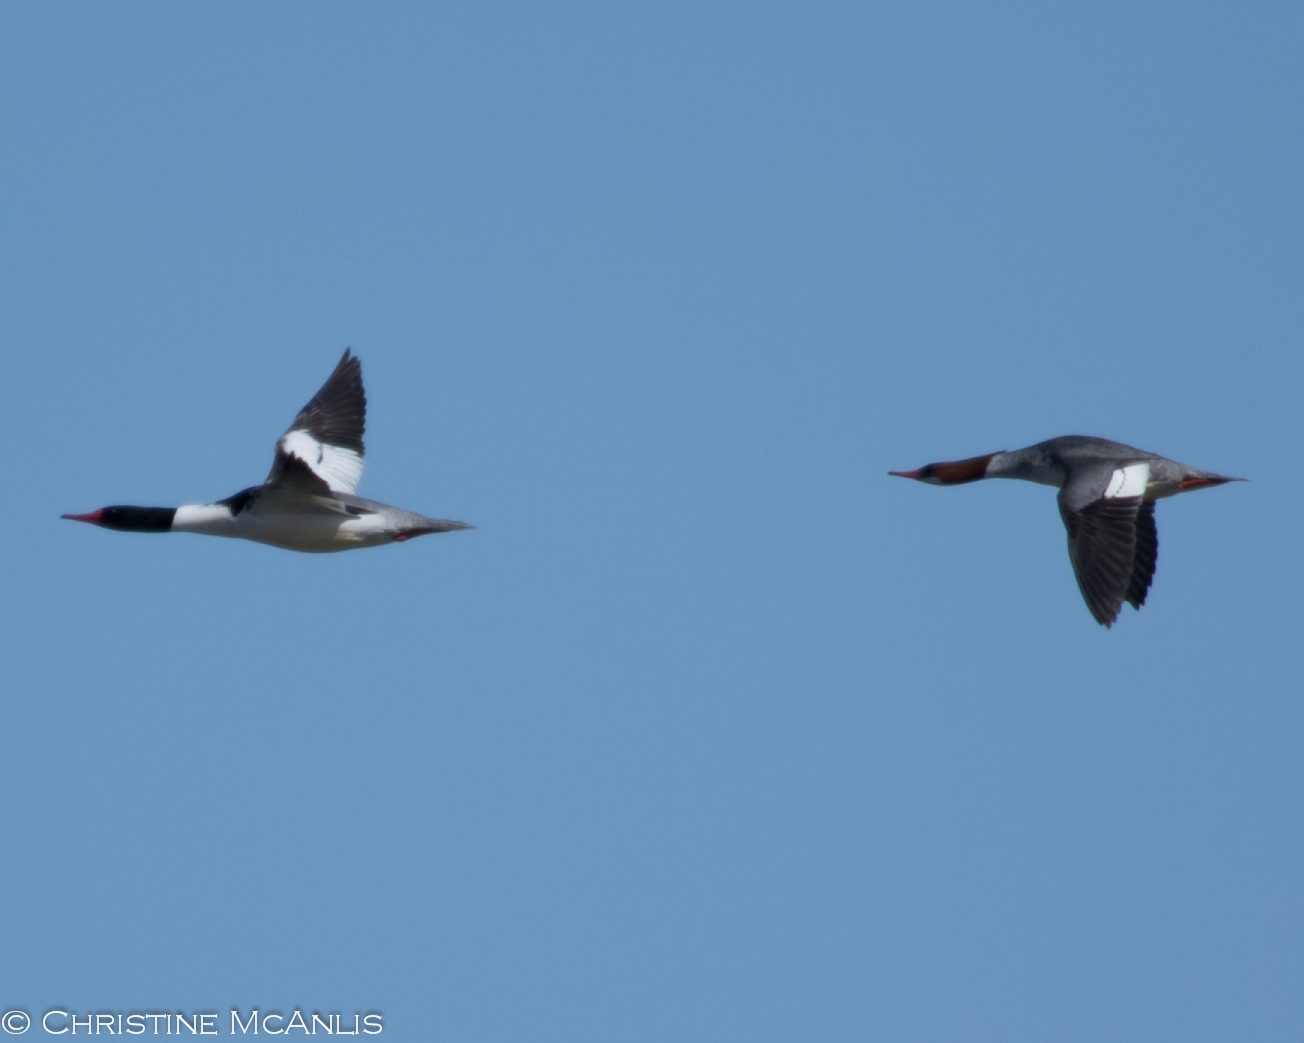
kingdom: Animalia
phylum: Chordata
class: Aves
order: Anseriformes
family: Anatidae
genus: Mergus
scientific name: Mergus merganser
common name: Common merganser
